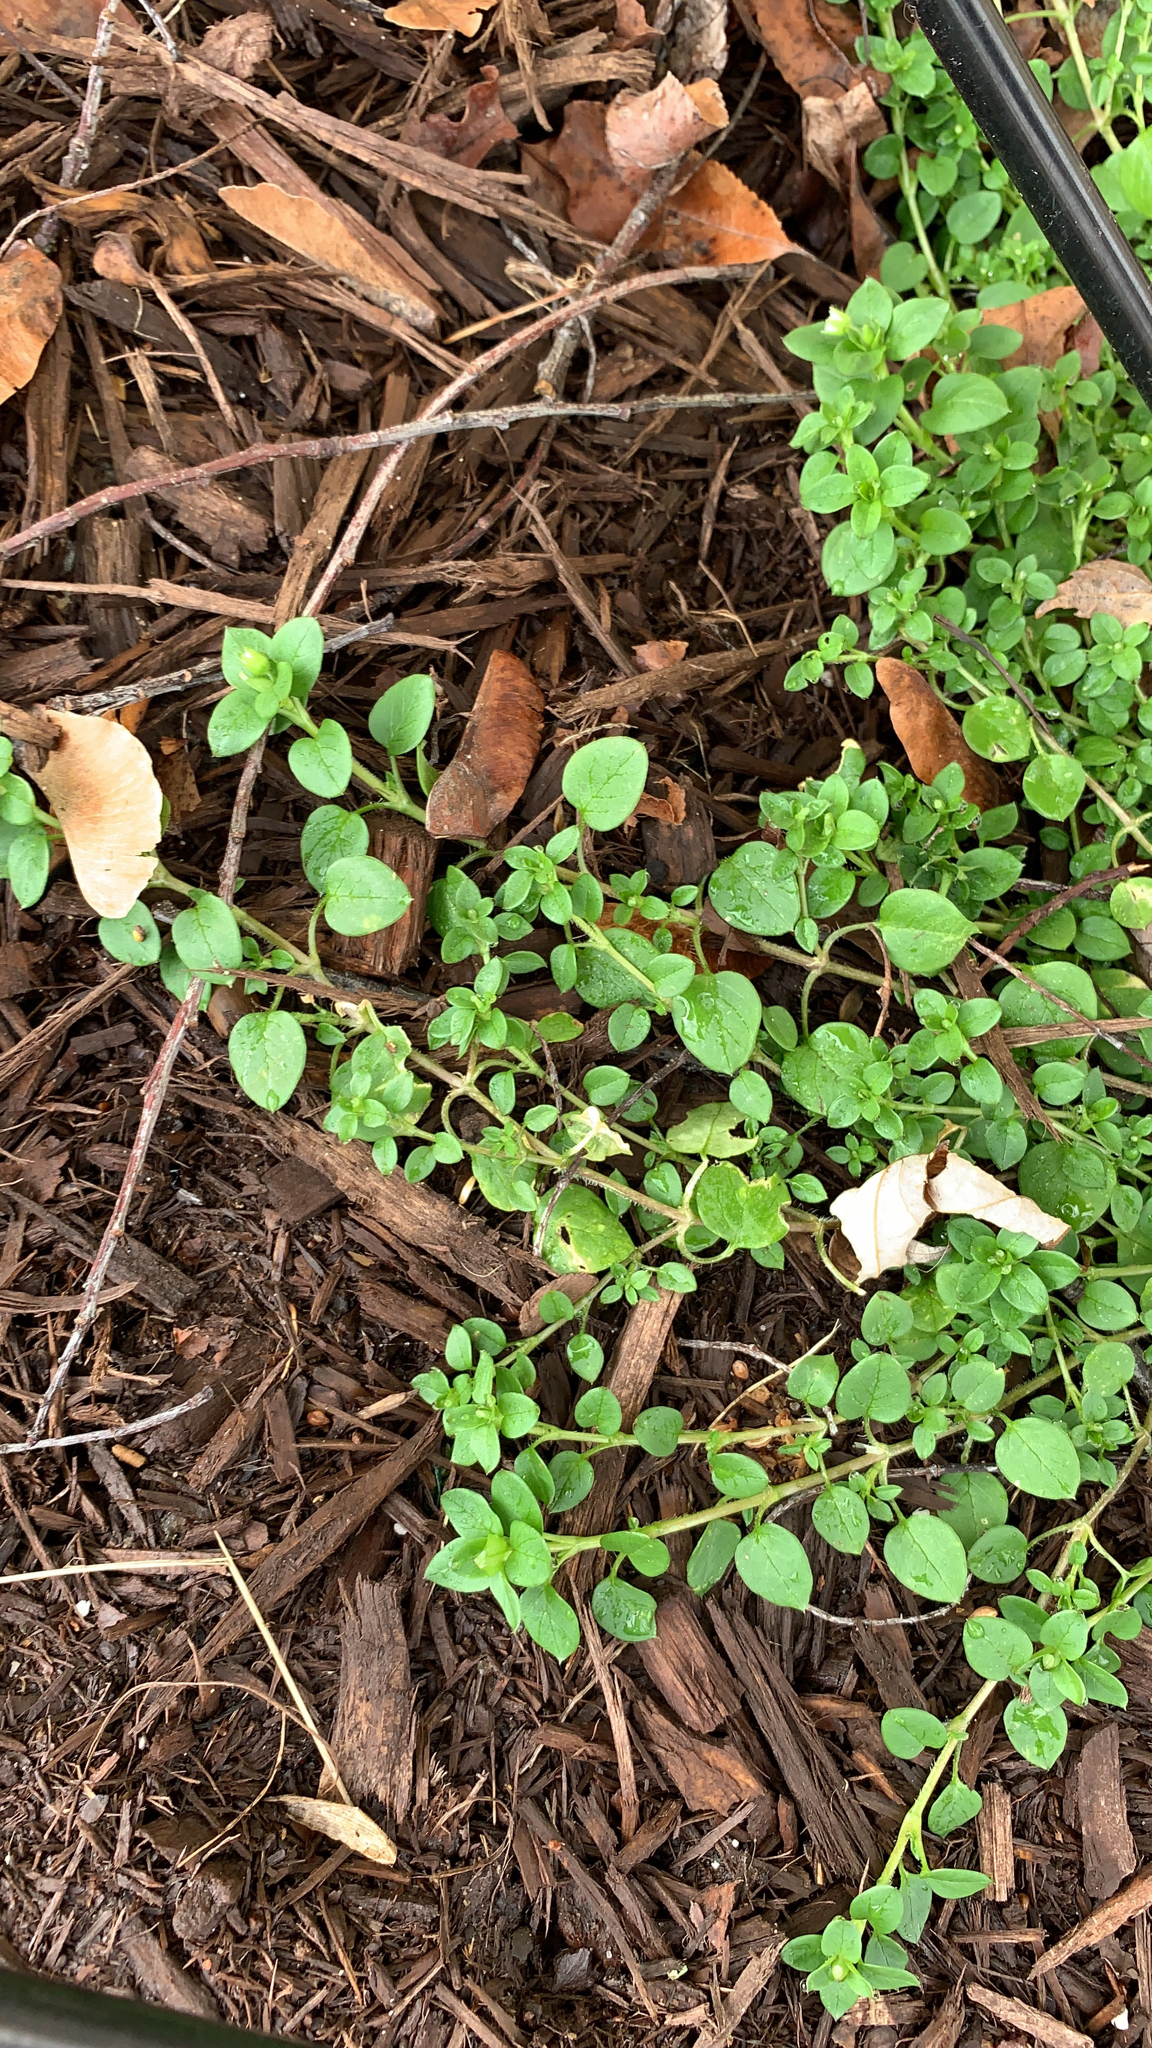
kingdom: Plantae
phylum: Tracheophyta
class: Magnoliopsida
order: Caryophyllales
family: Caryophyllaceae
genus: Stellaria
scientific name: Stellaria media
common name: Common chickweed
